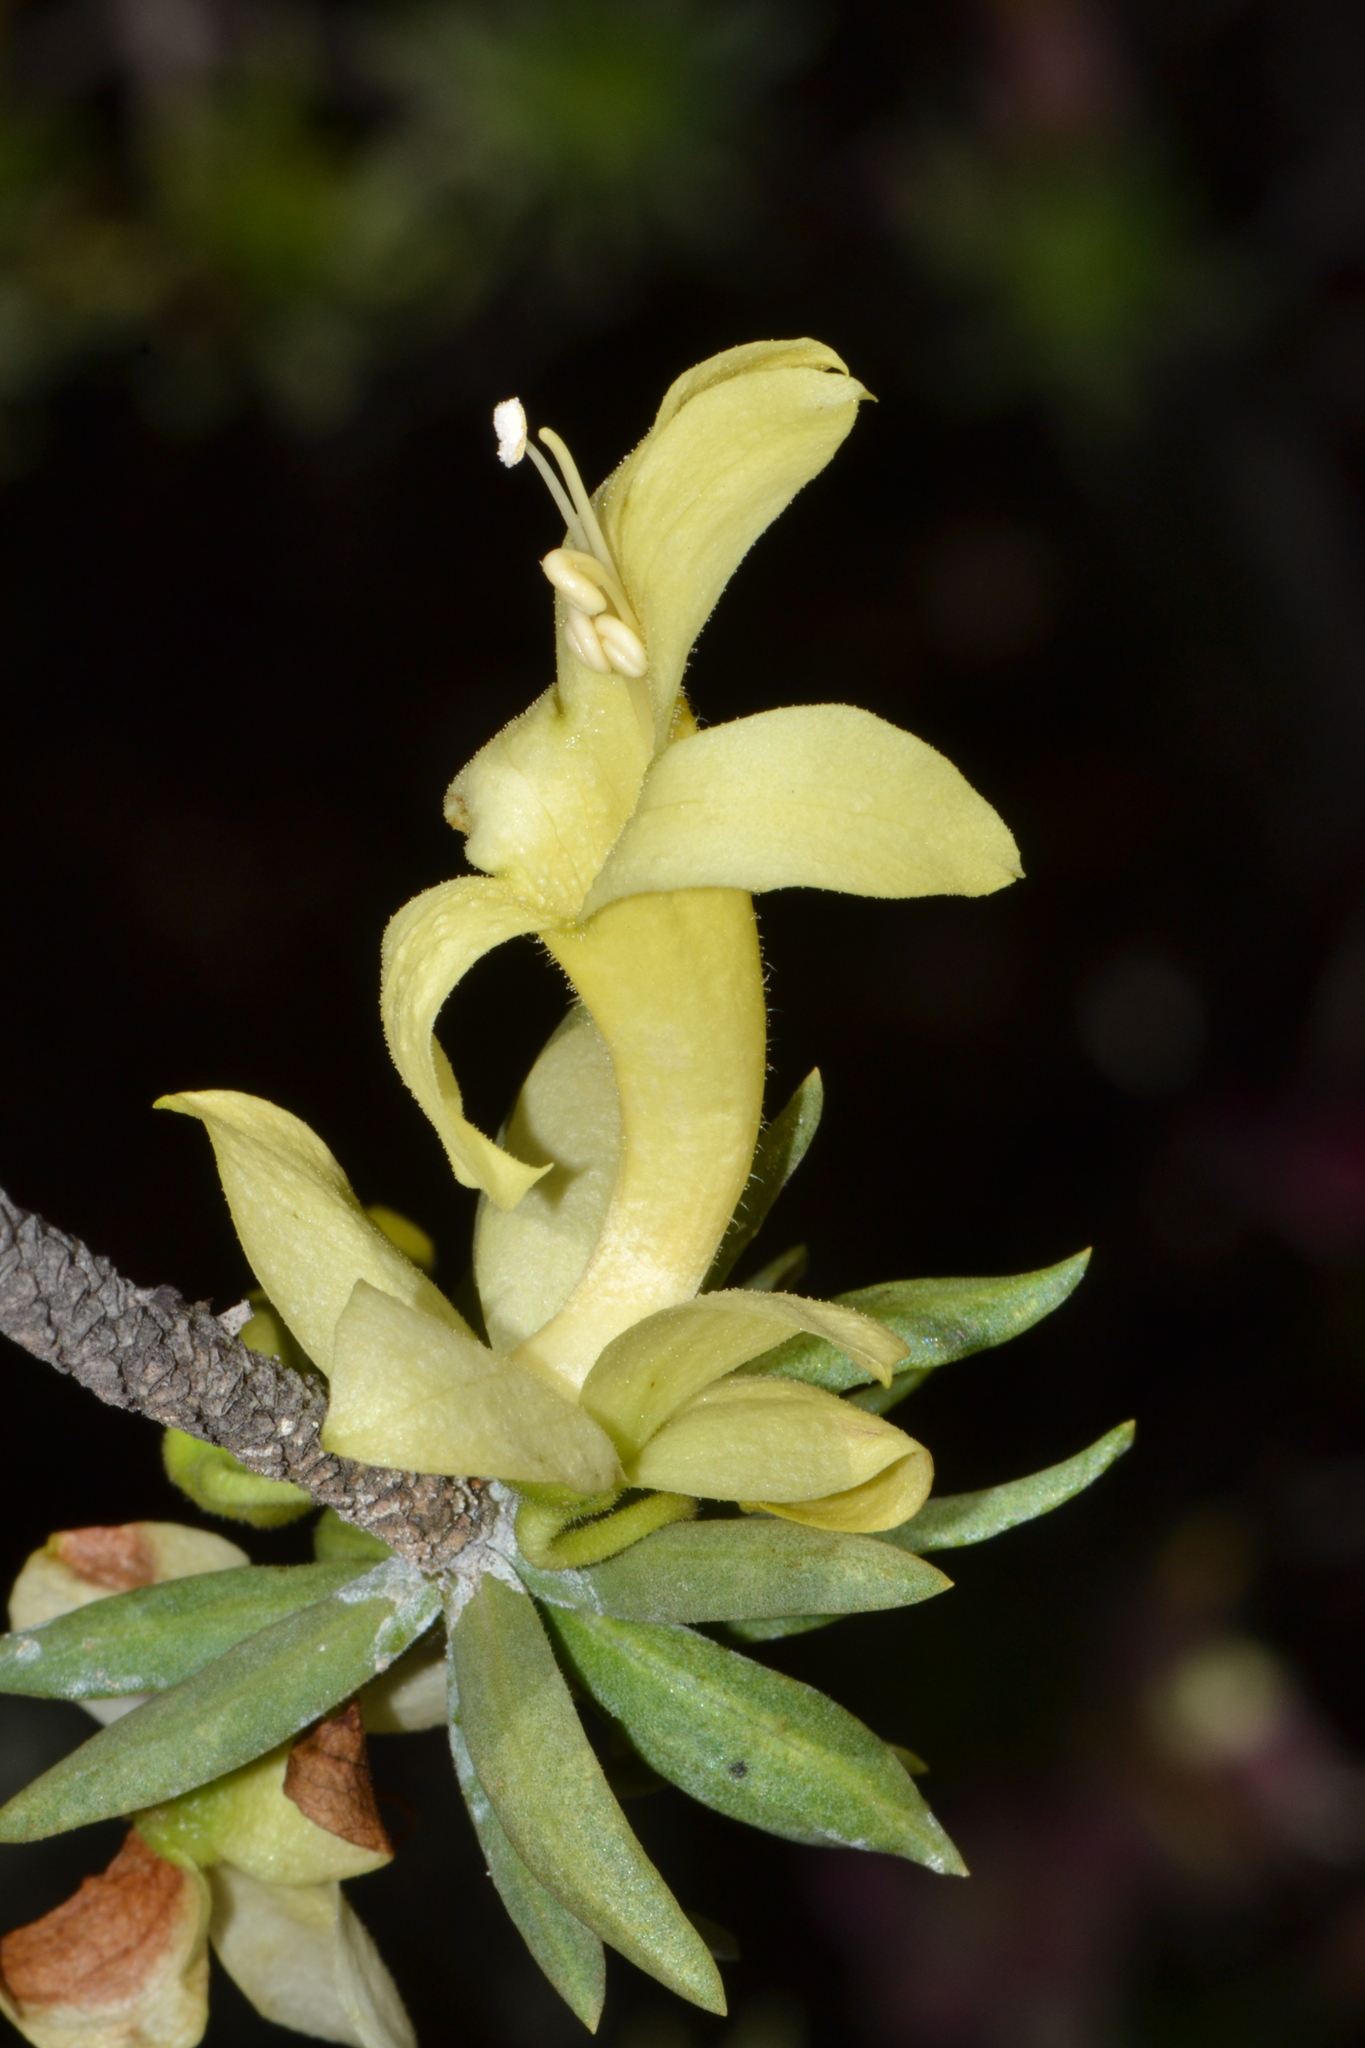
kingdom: Plantae
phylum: Tracheophyta
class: Magnoliopsida
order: Lamiales
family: Scrophulariaceae
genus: Eremophila
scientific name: Eremophila miniata
